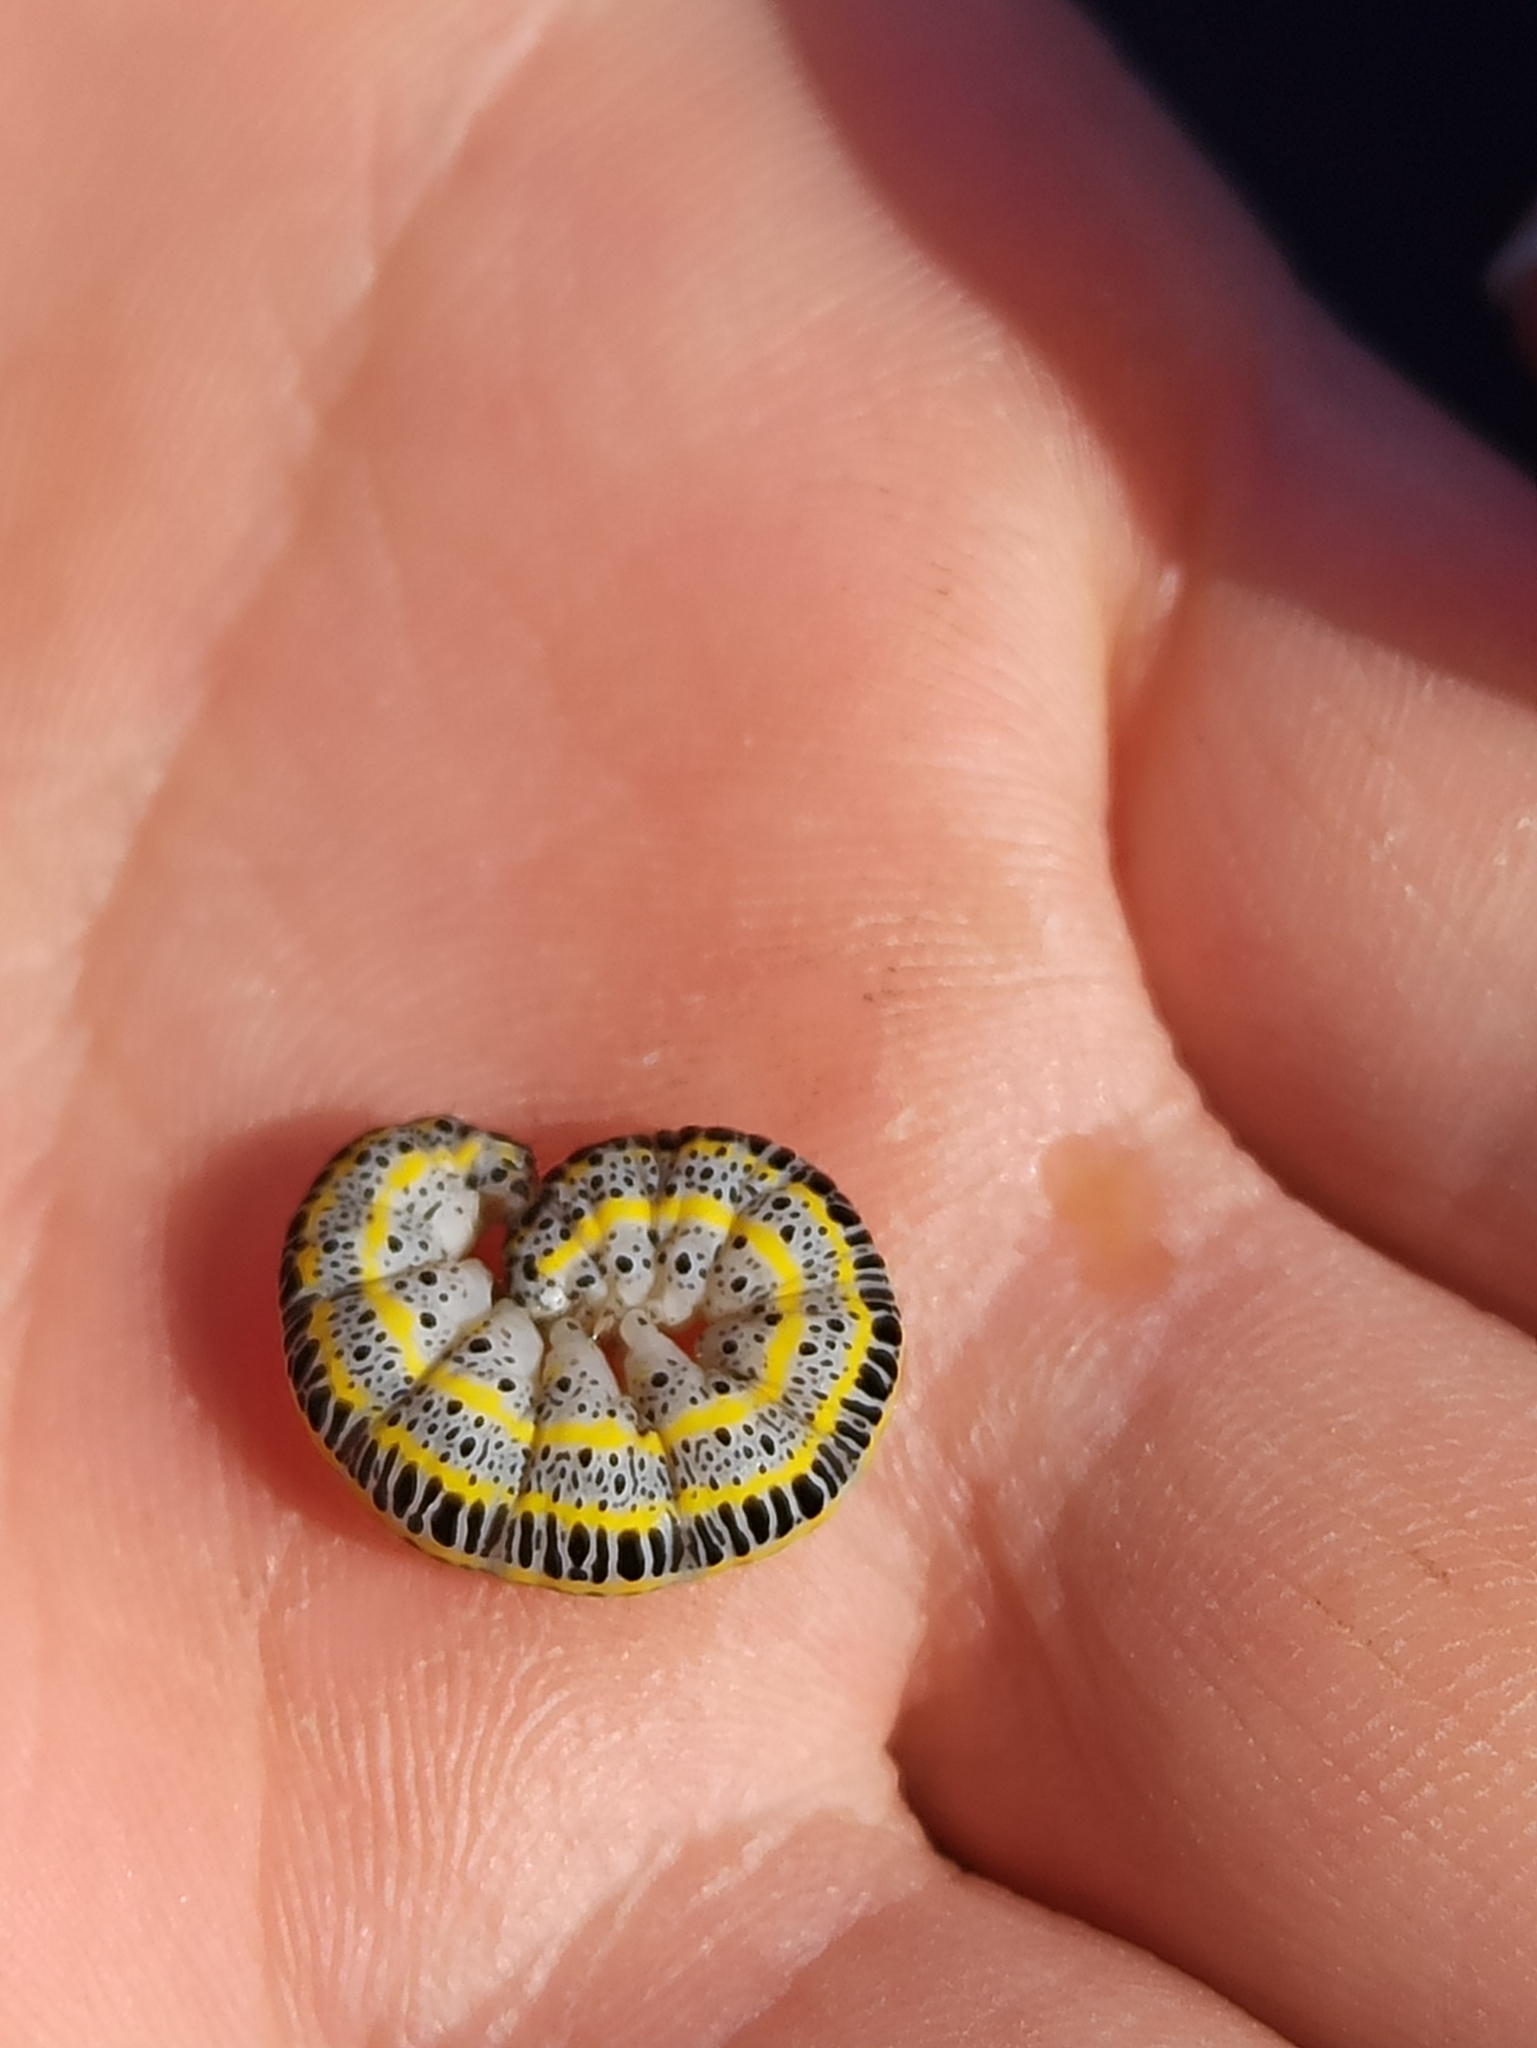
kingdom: Animalia
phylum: Arthropoda
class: Insecta
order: Lepidoptera
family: Noctuidae
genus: Calophasia
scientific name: Calophasia lunula
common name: Toadflax brocade
